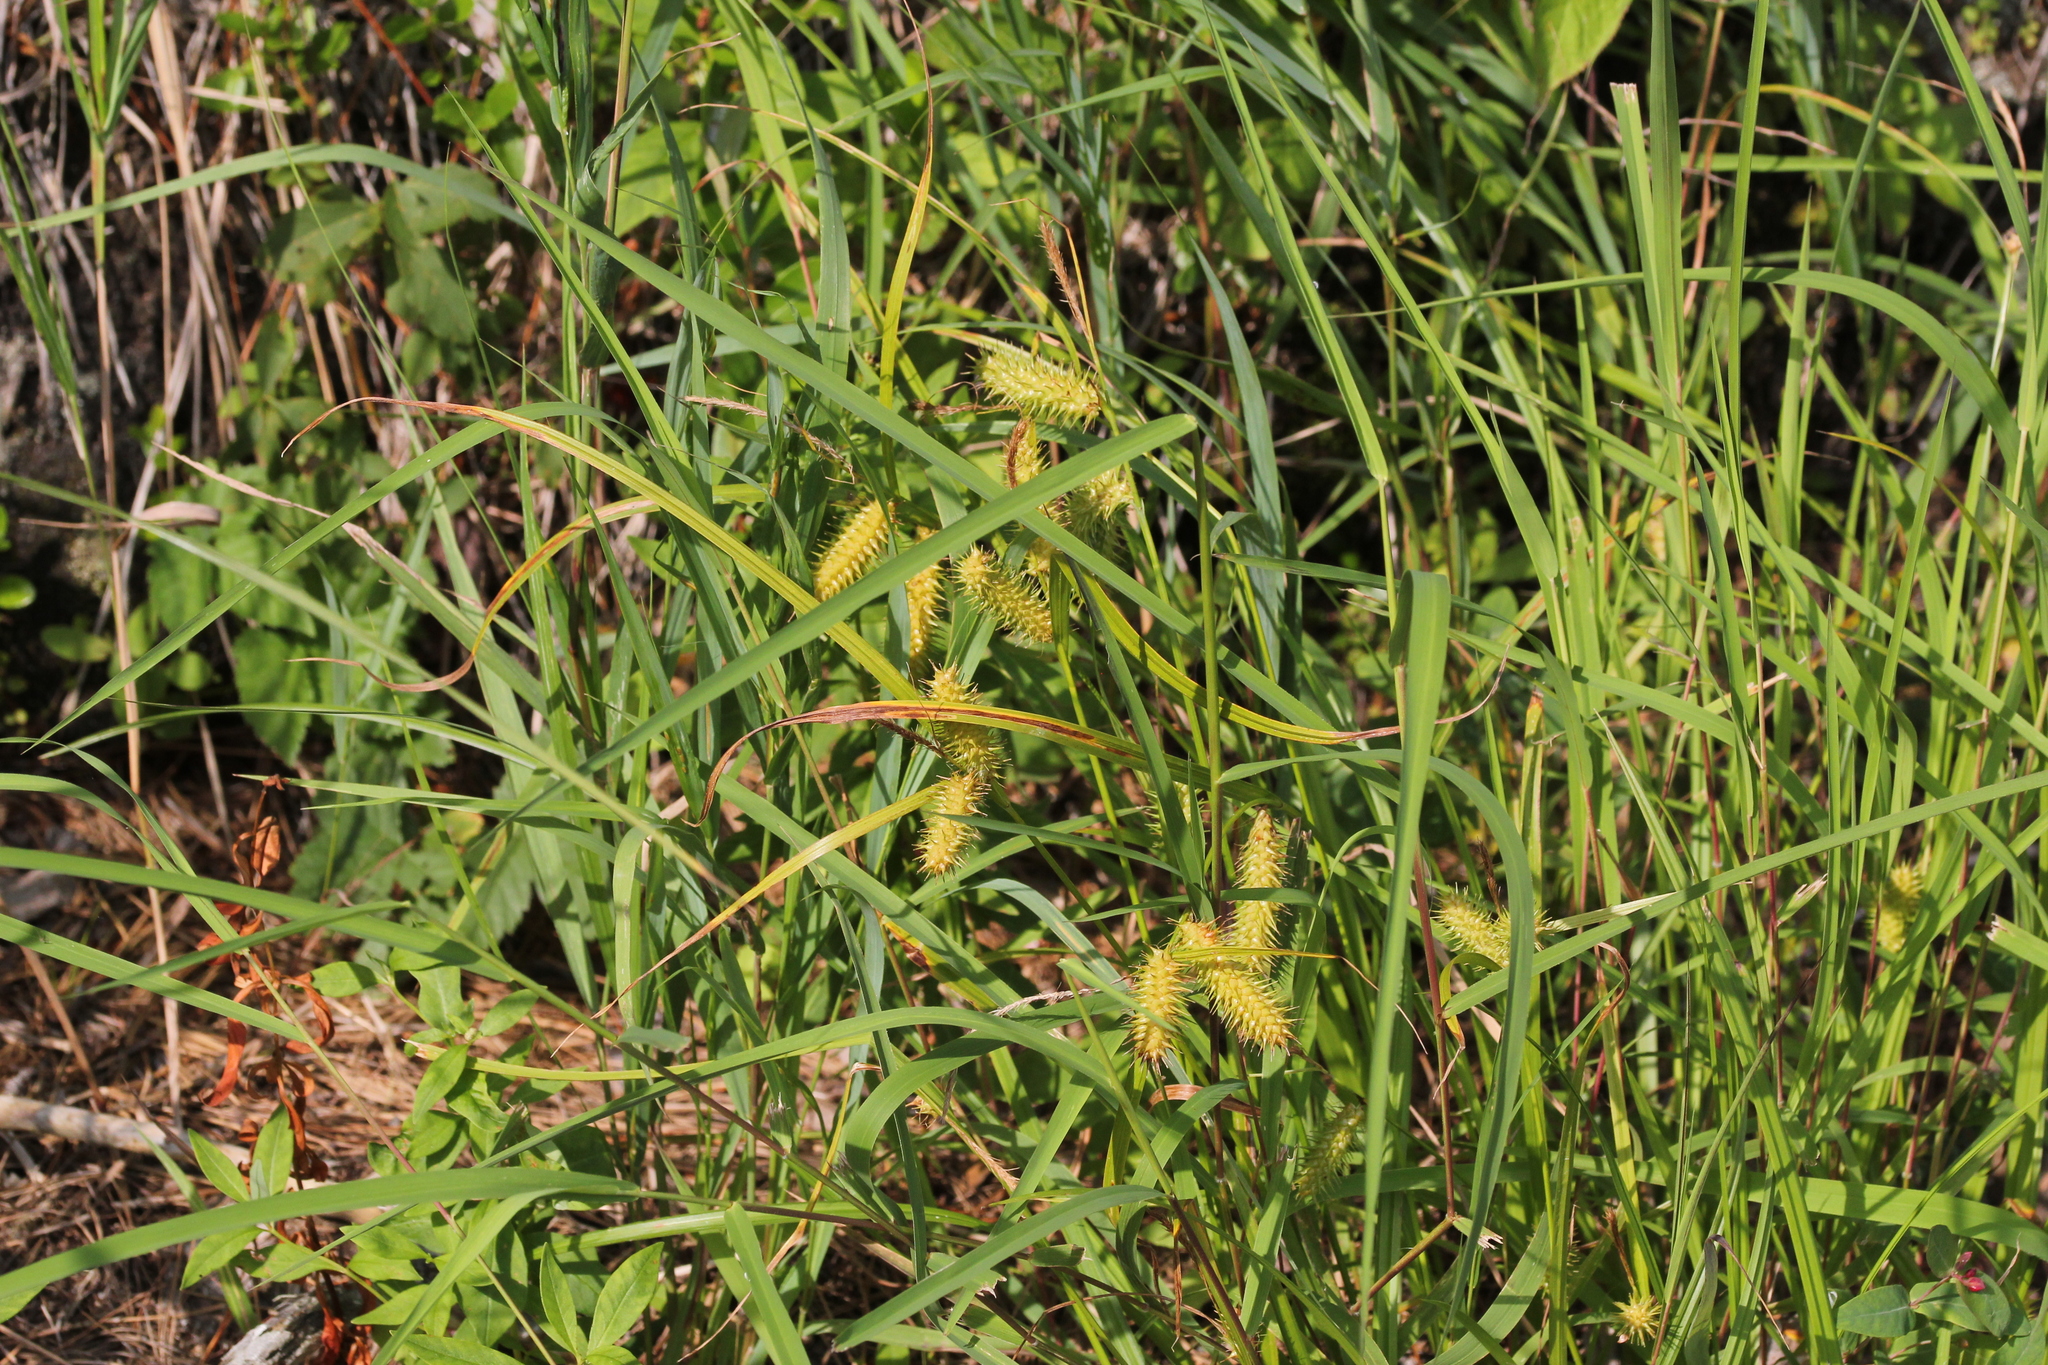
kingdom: Plantae
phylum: Tracheophyta
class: Liliopsida
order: Poales
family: Cyperaceae
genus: Carex
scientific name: Carex lurida
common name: Sallow sedge
